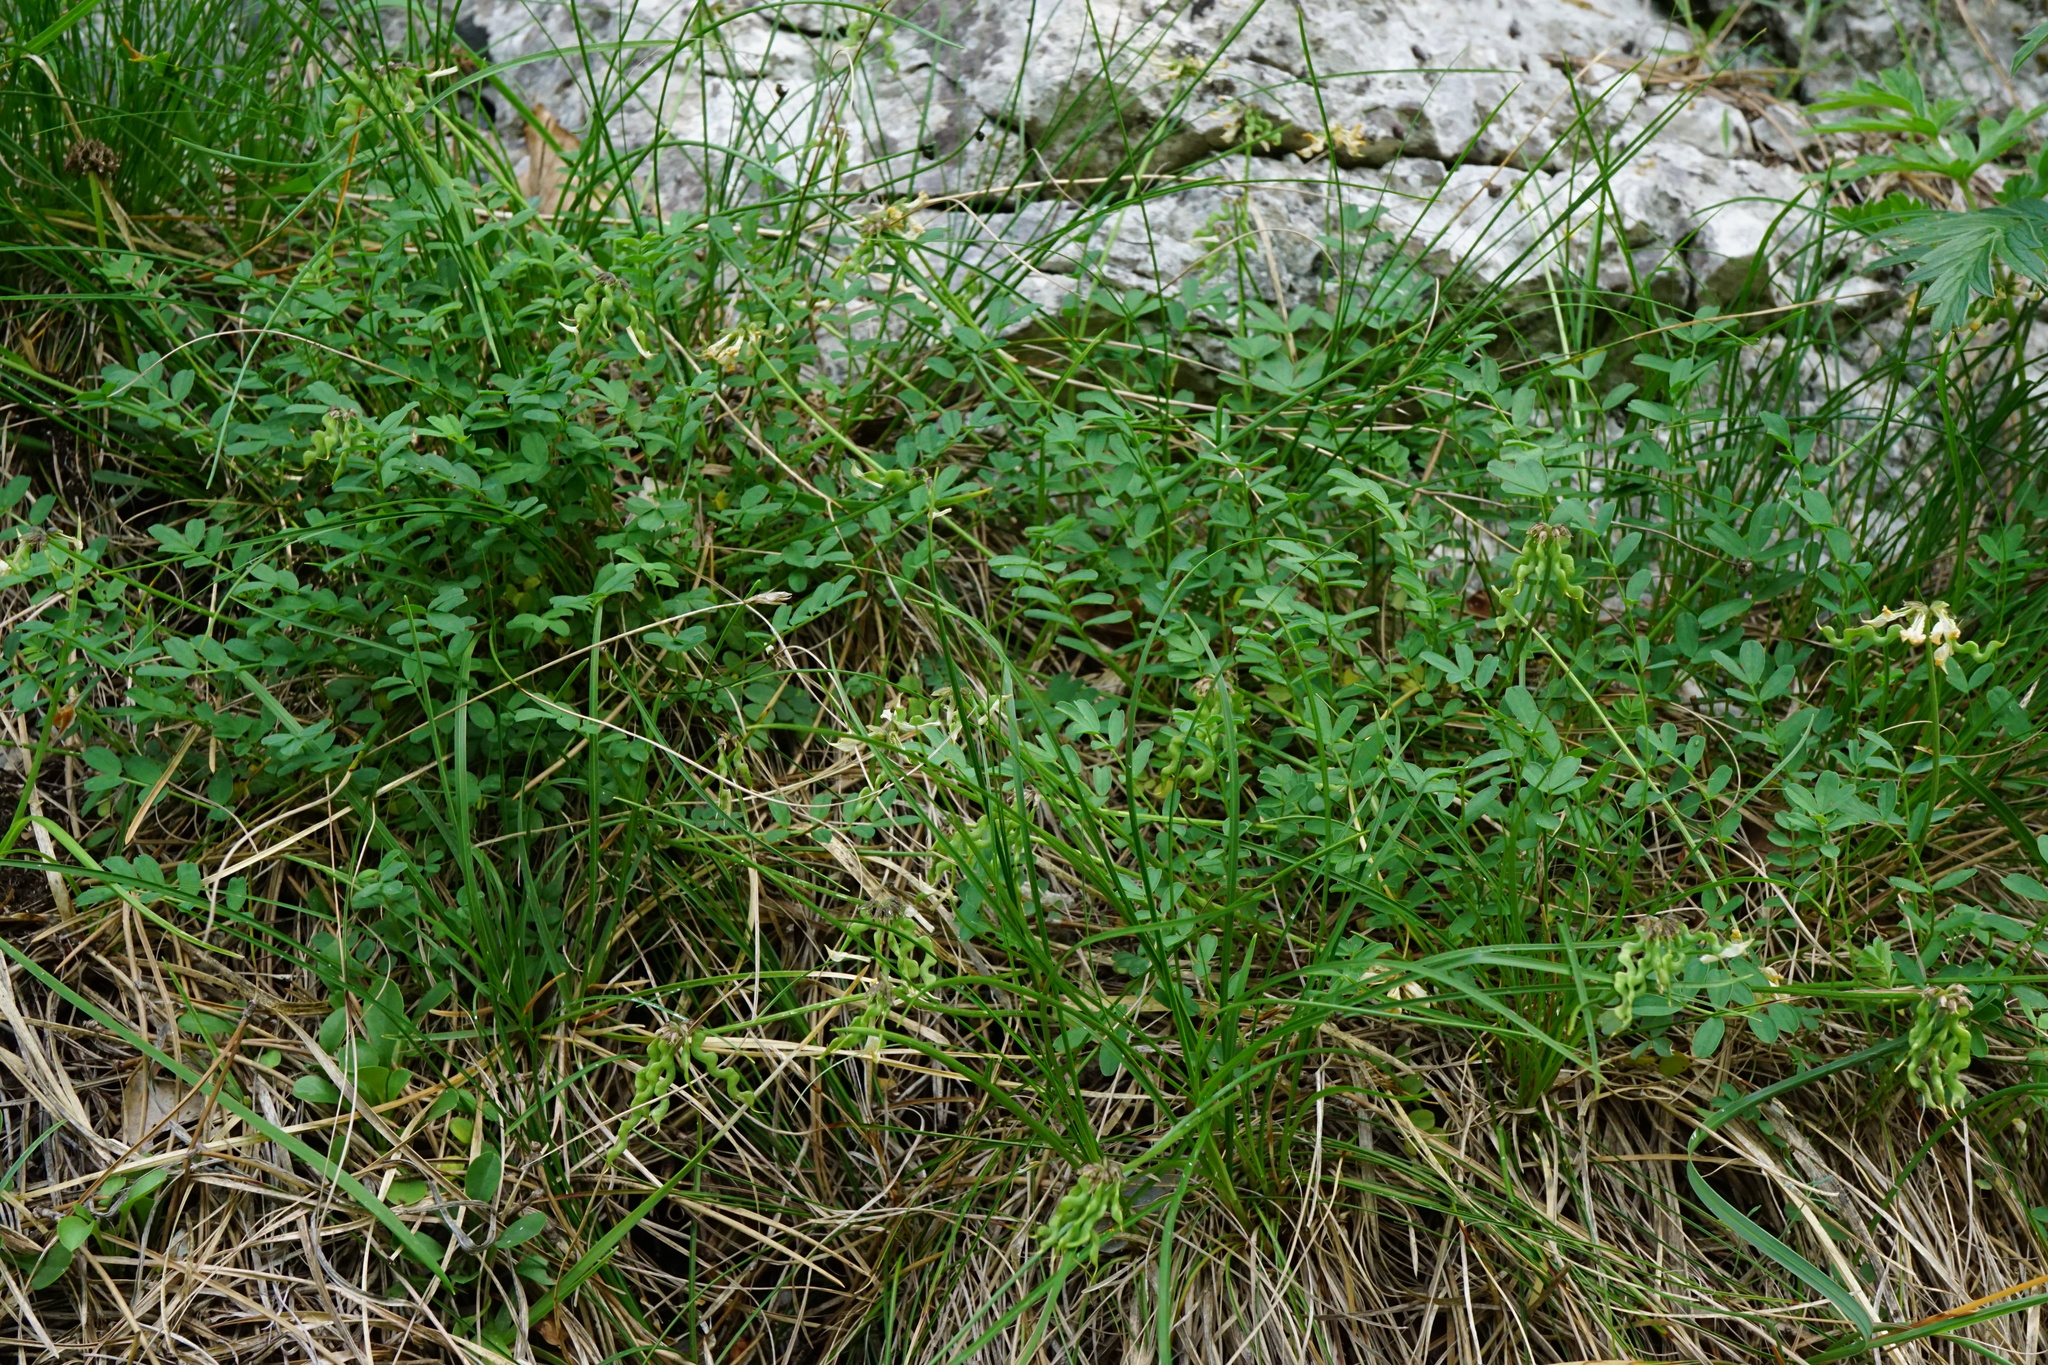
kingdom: Plantae
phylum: Tracheophyta
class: Magnoliopsida
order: Fabales
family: Fabaceae
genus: Hippocrepis
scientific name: Hippocrepis comosa
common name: Horseshoe vetch
